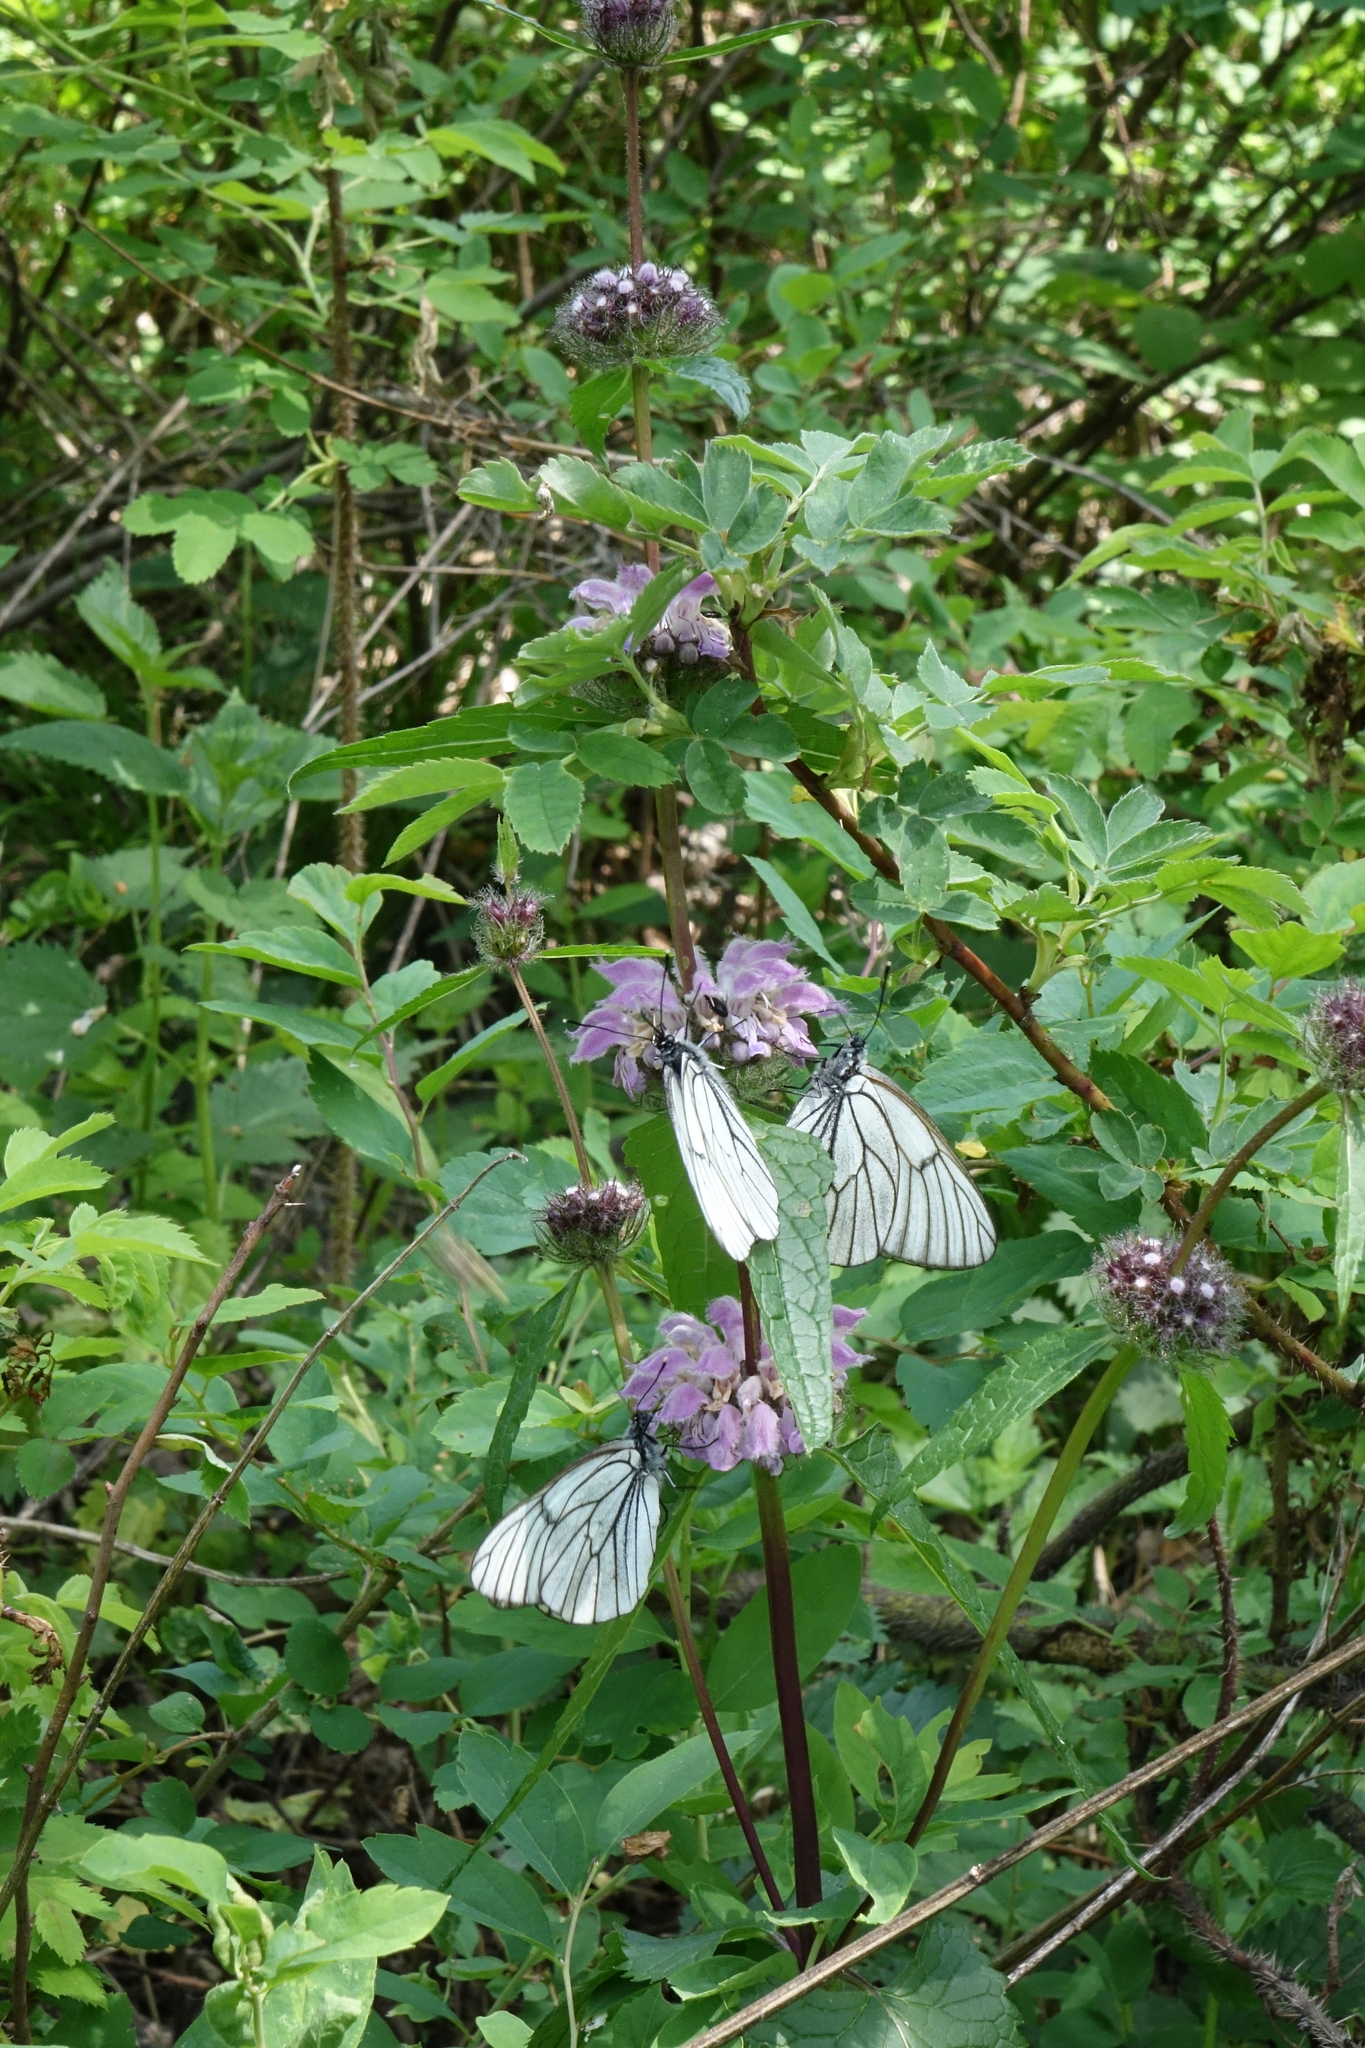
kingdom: Animalia
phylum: Arthropoda
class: Insecta
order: Lepidoptera
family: Pieridae
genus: Aporia
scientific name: Aporia crataegi
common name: Black-veined white
